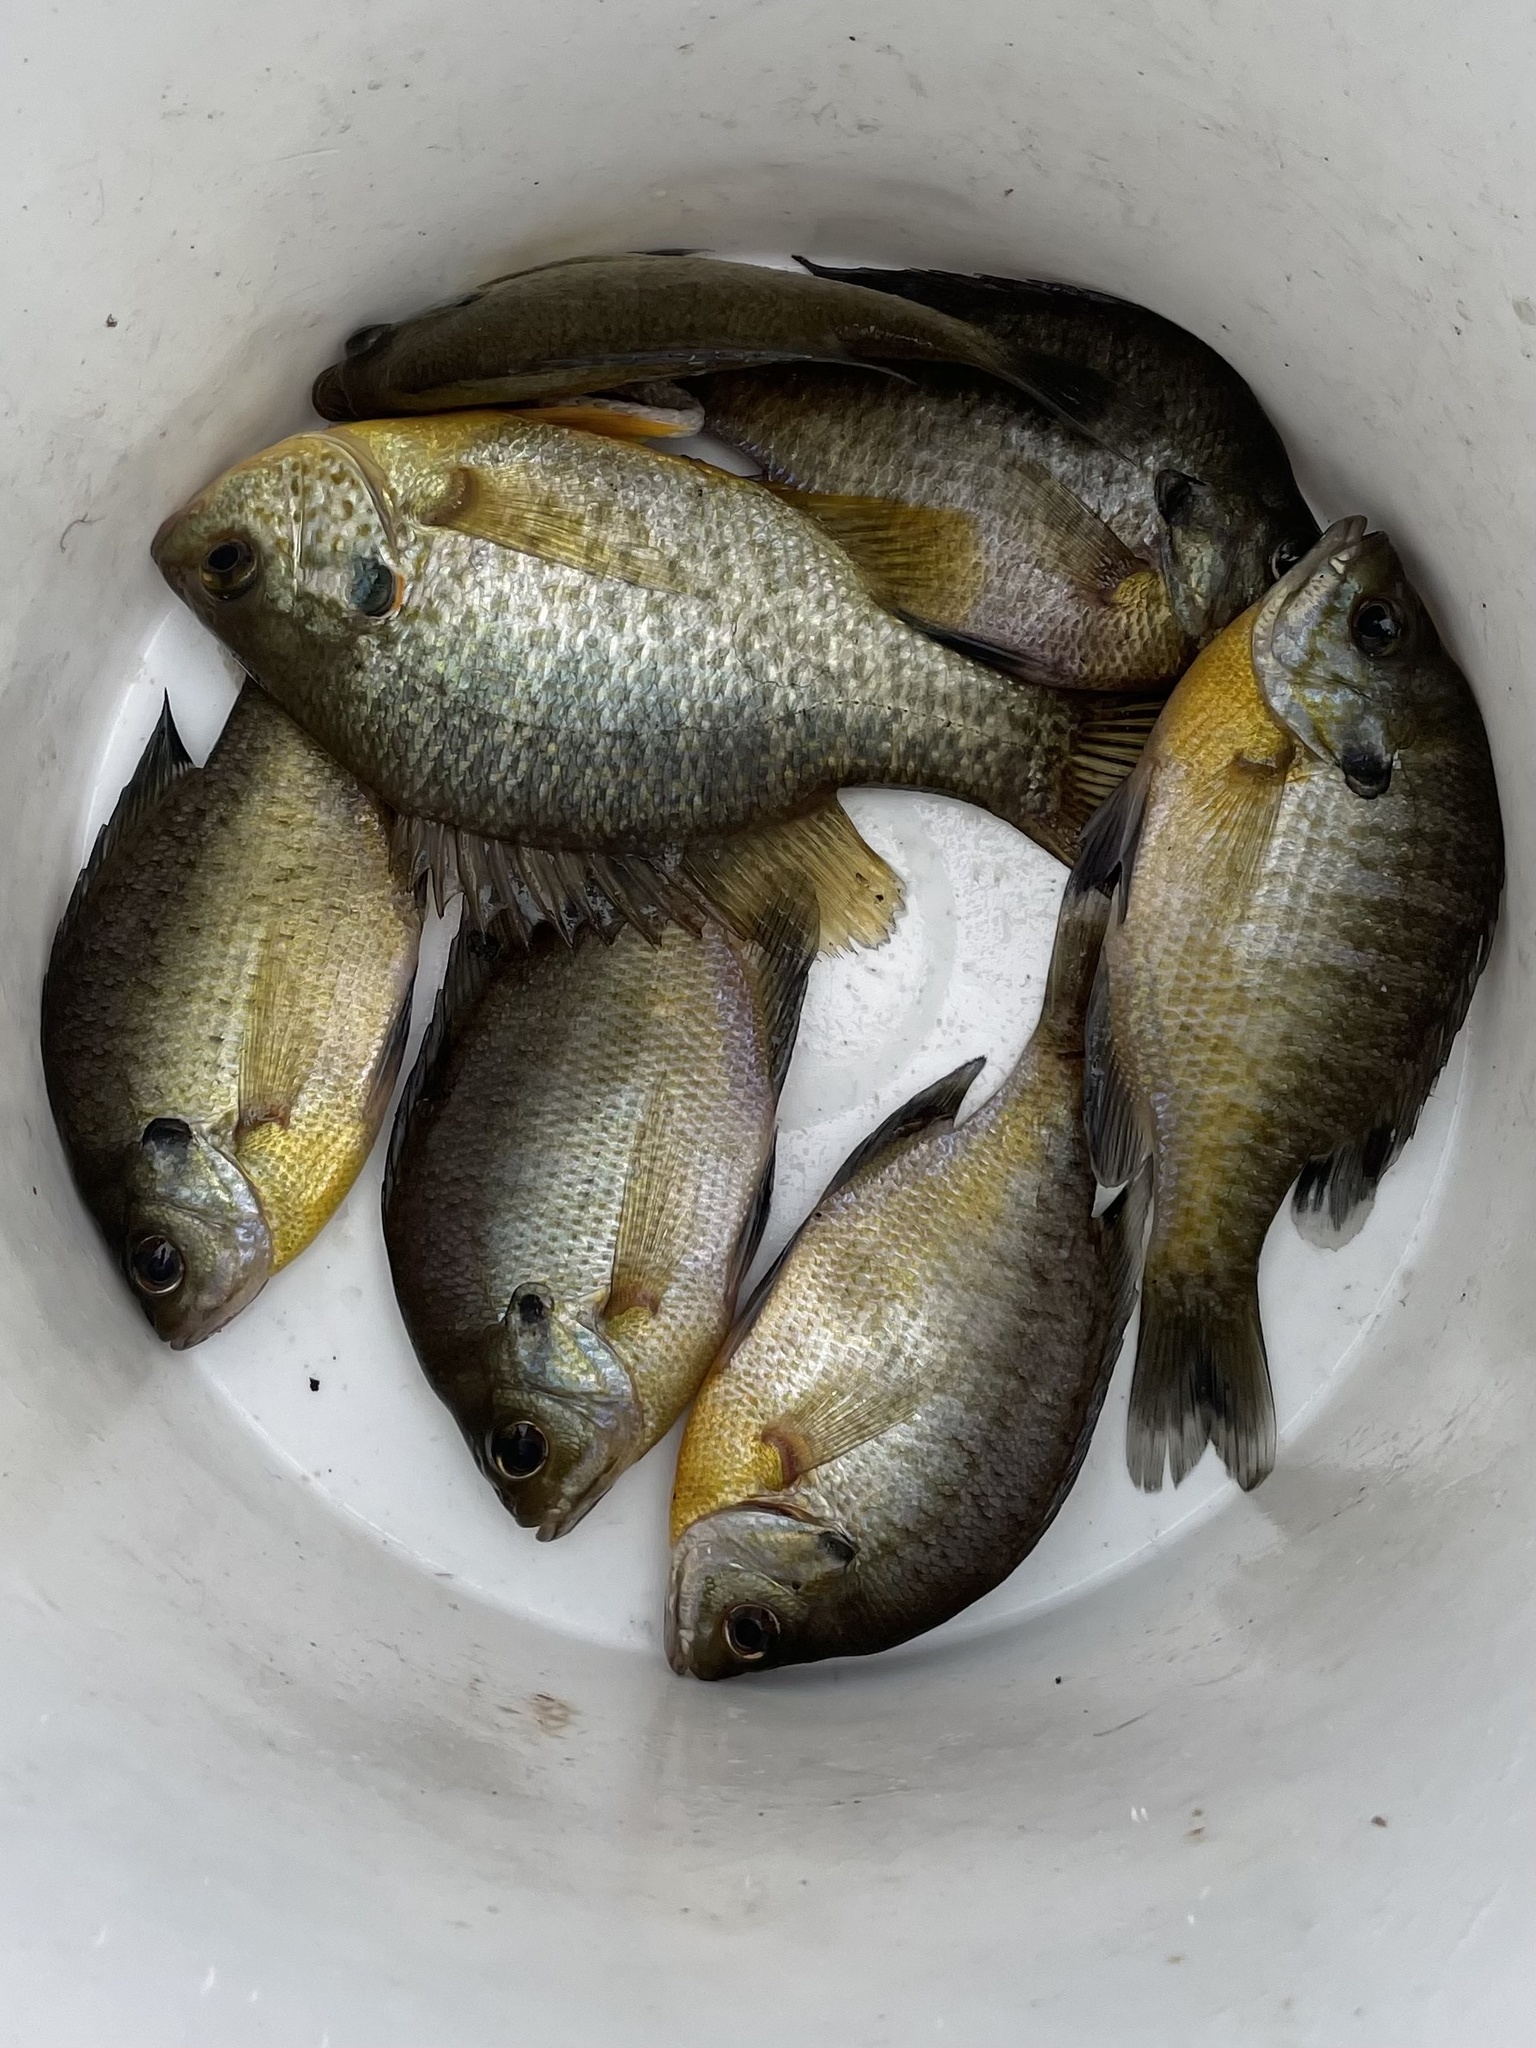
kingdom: Animalia
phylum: Chordata
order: Perciformes
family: Centrarchidae
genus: Lepomis
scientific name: Lepomis macrochirus
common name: Bluegill
